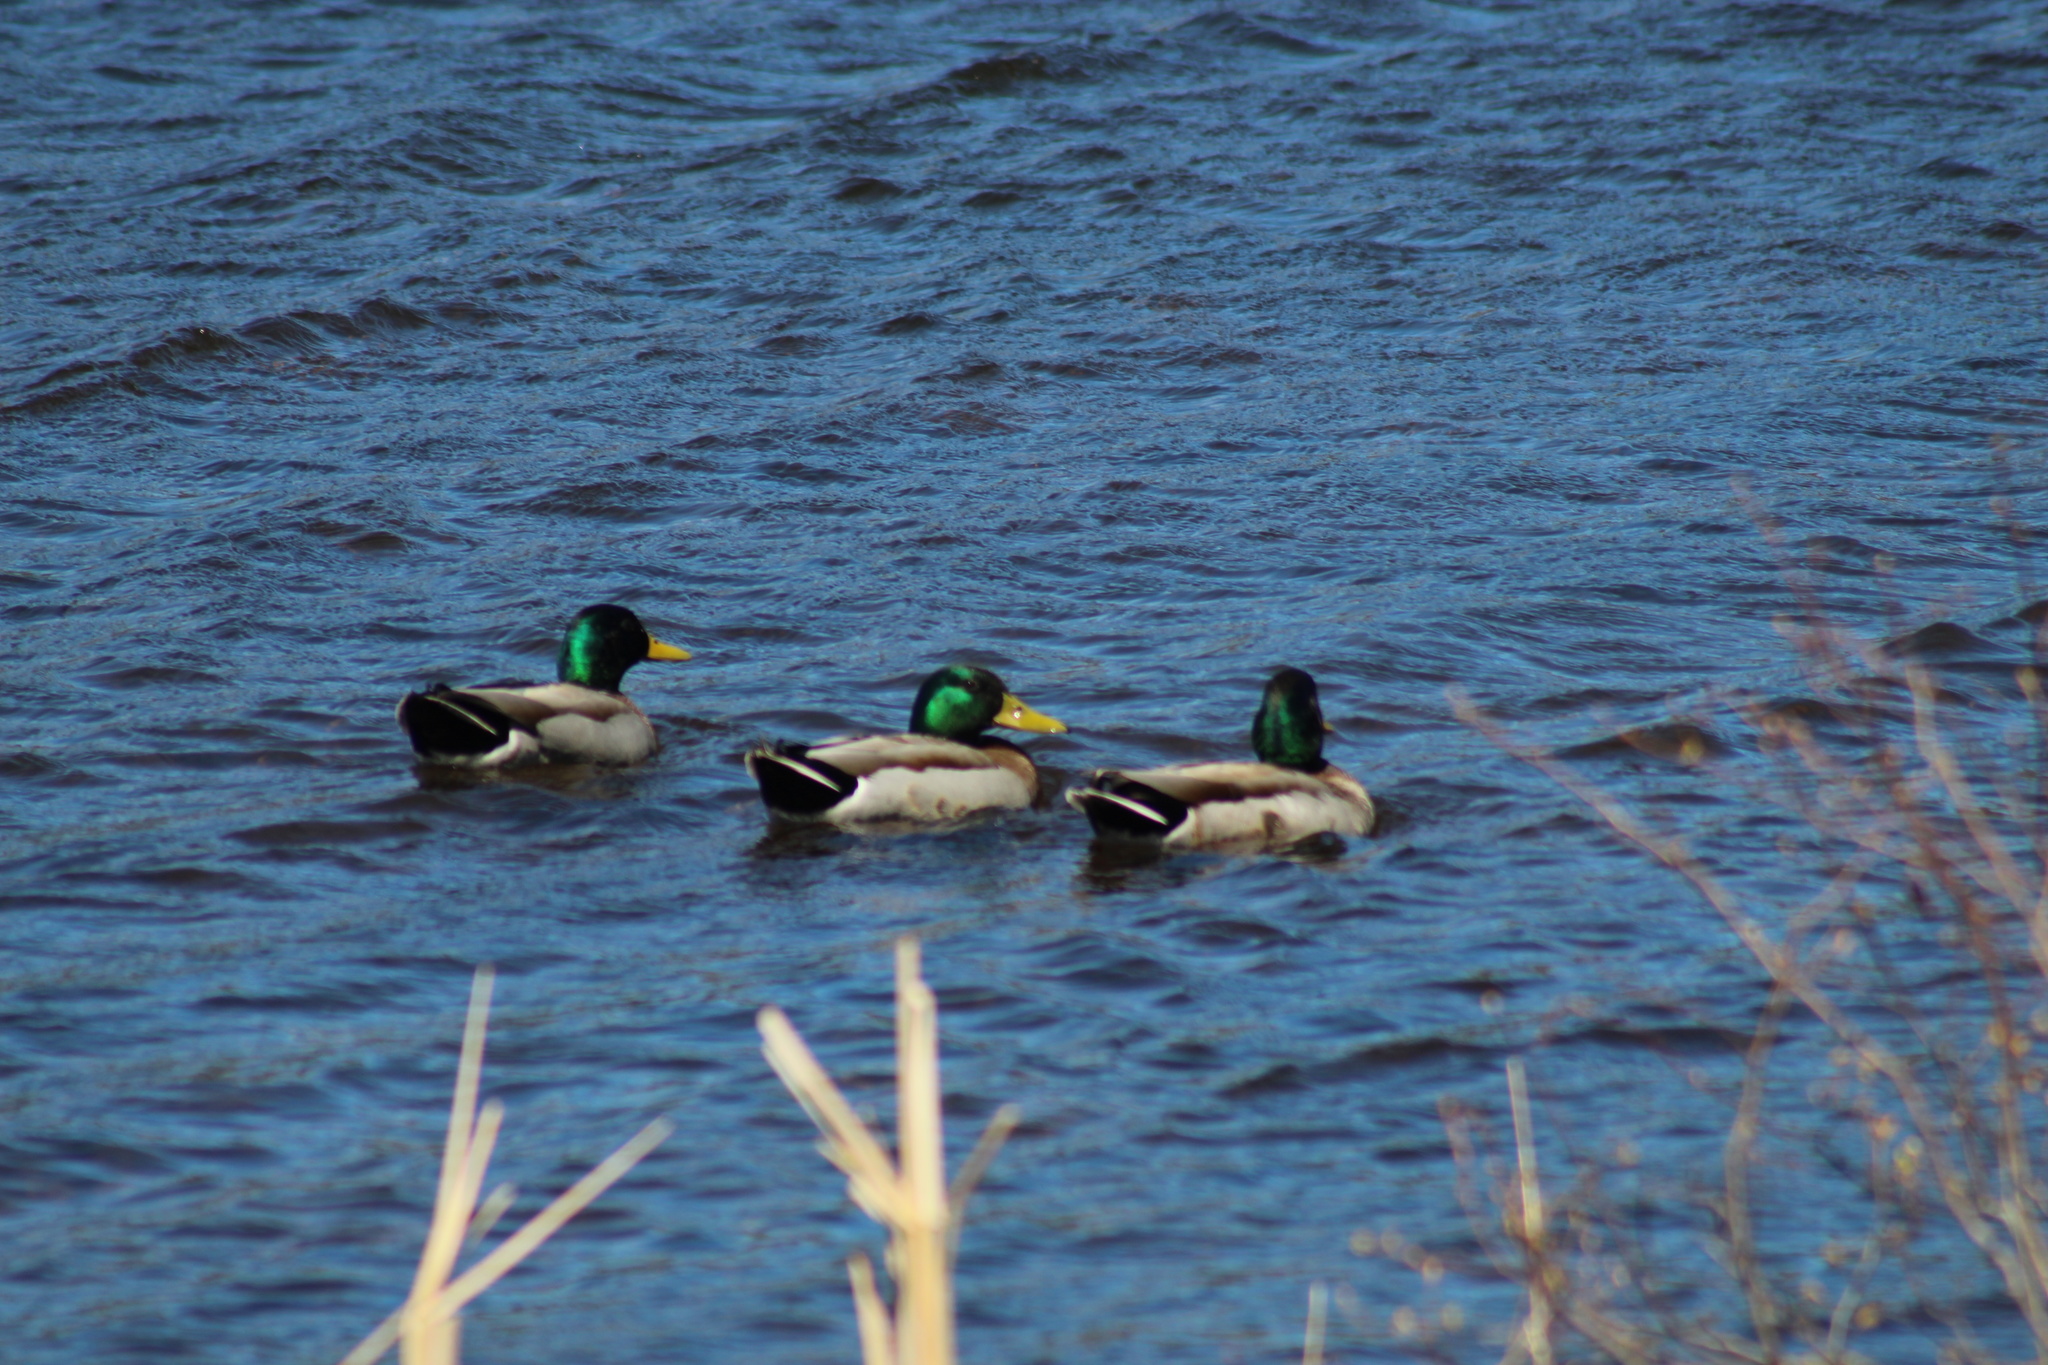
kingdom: Animalia
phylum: Chordata
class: Aves
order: Anseriformes
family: Anatidae
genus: Anas
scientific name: Anas platyrhynchos
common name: Mallard
